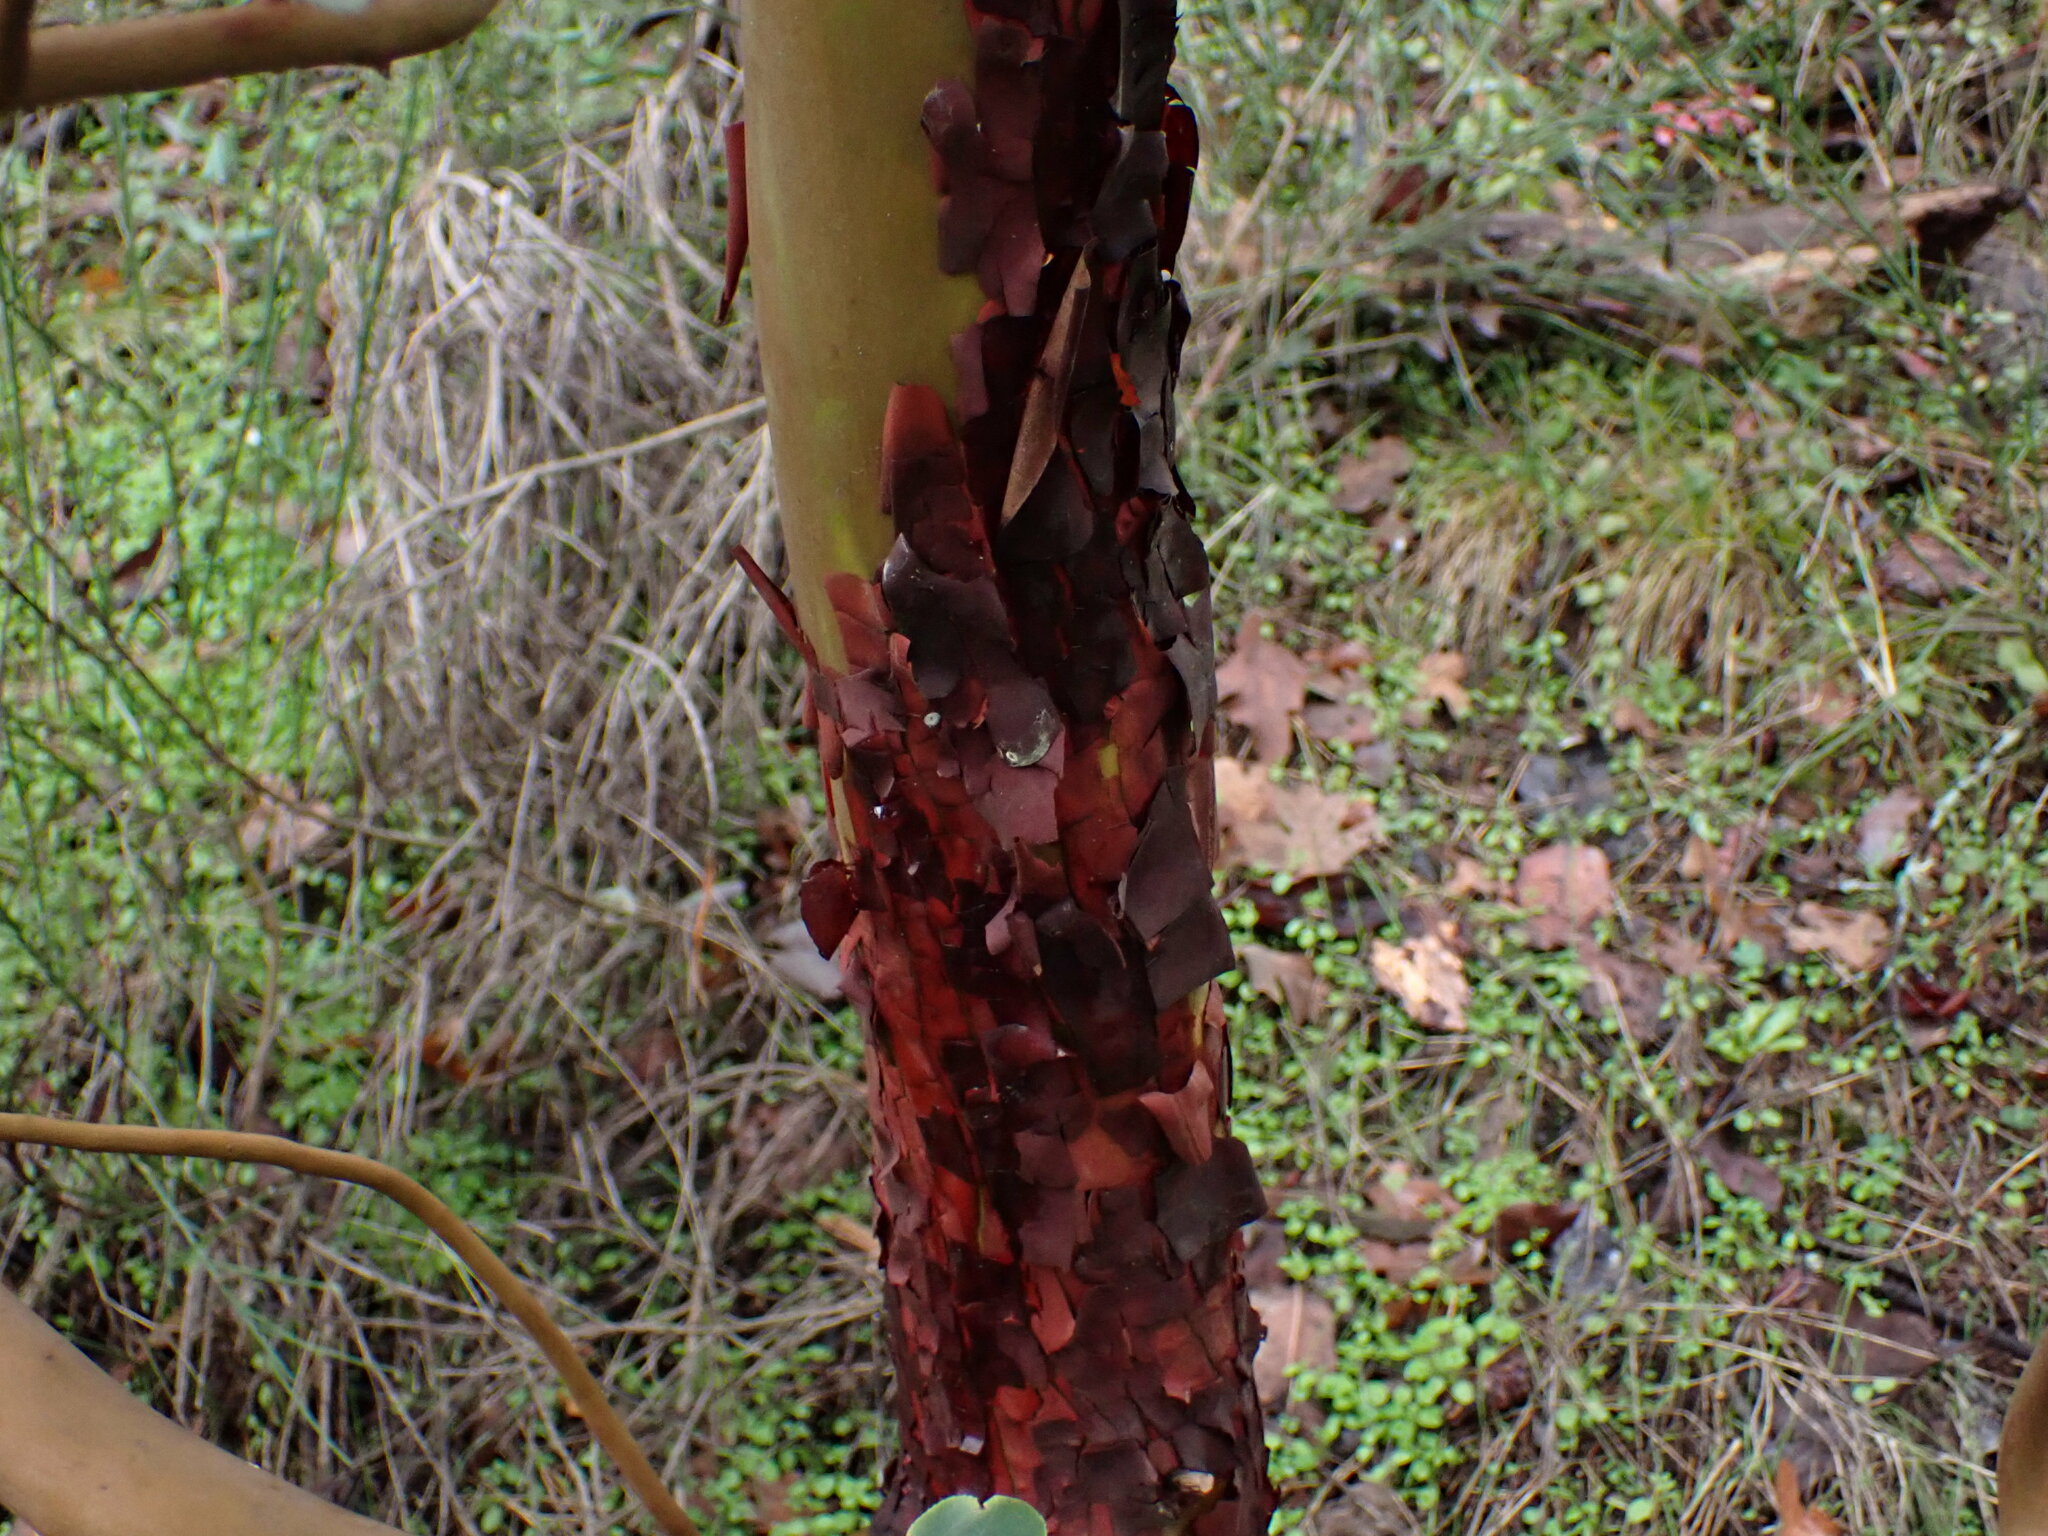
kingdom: Plantae
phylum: Tracheophyta
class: Magnoliopsida
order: Ericales
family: Ericaceae
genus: Arbutus
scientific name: Arbutus menziesii
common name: Pacific madrone
